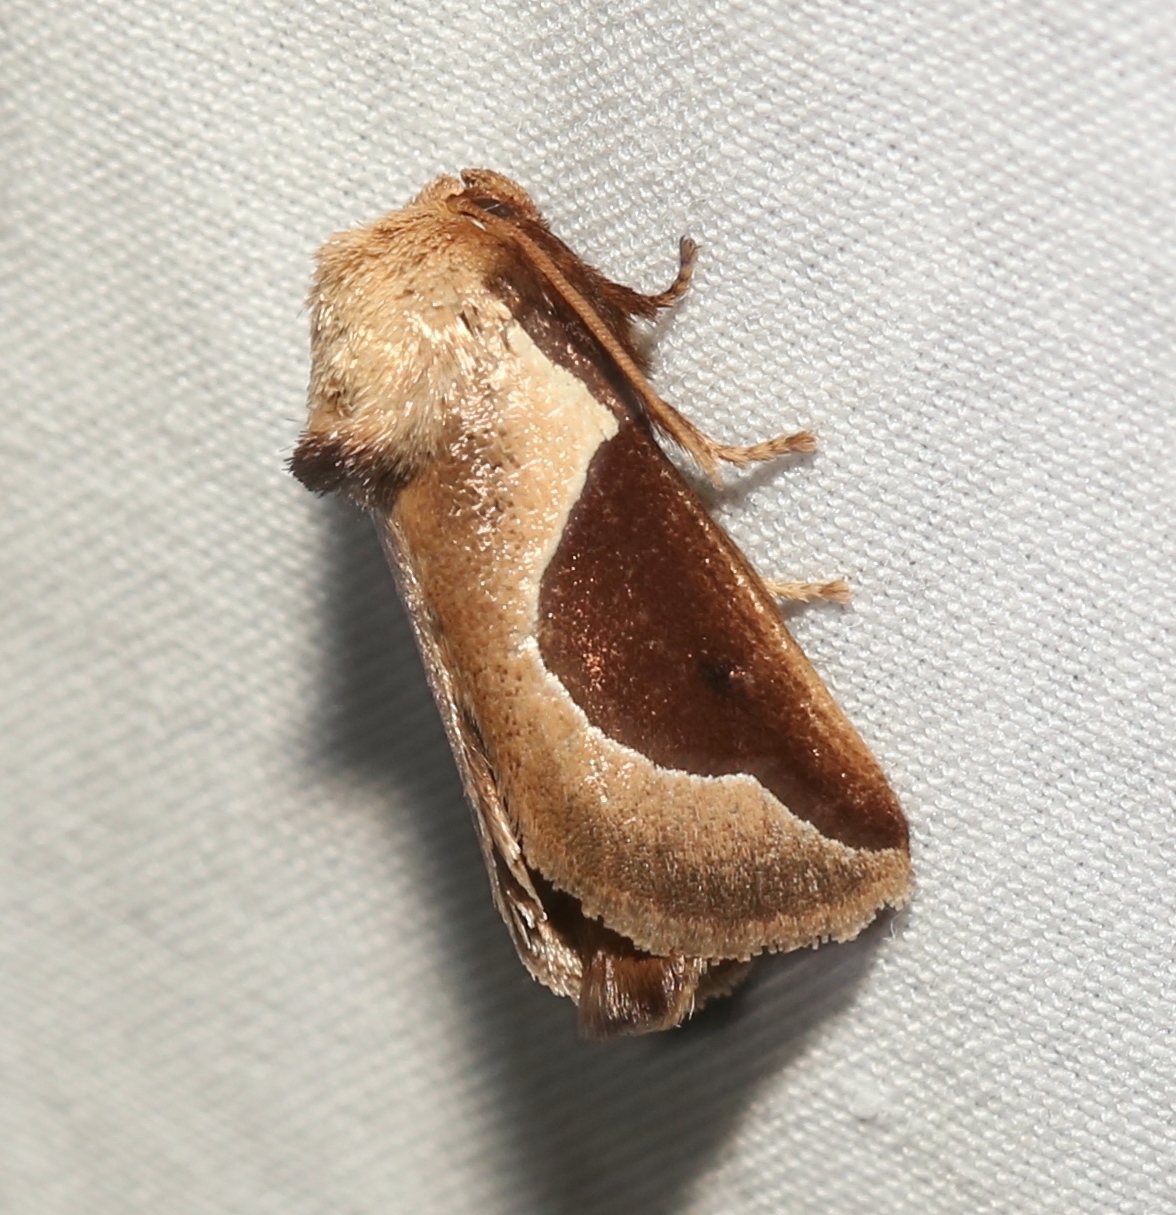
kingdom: Animalia
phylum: Arthropoda
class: Insecta
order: Lepidoptera
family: Limacodidae
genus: Prolimacodes
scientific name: Prolimacodes badia
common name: Skiff moth
